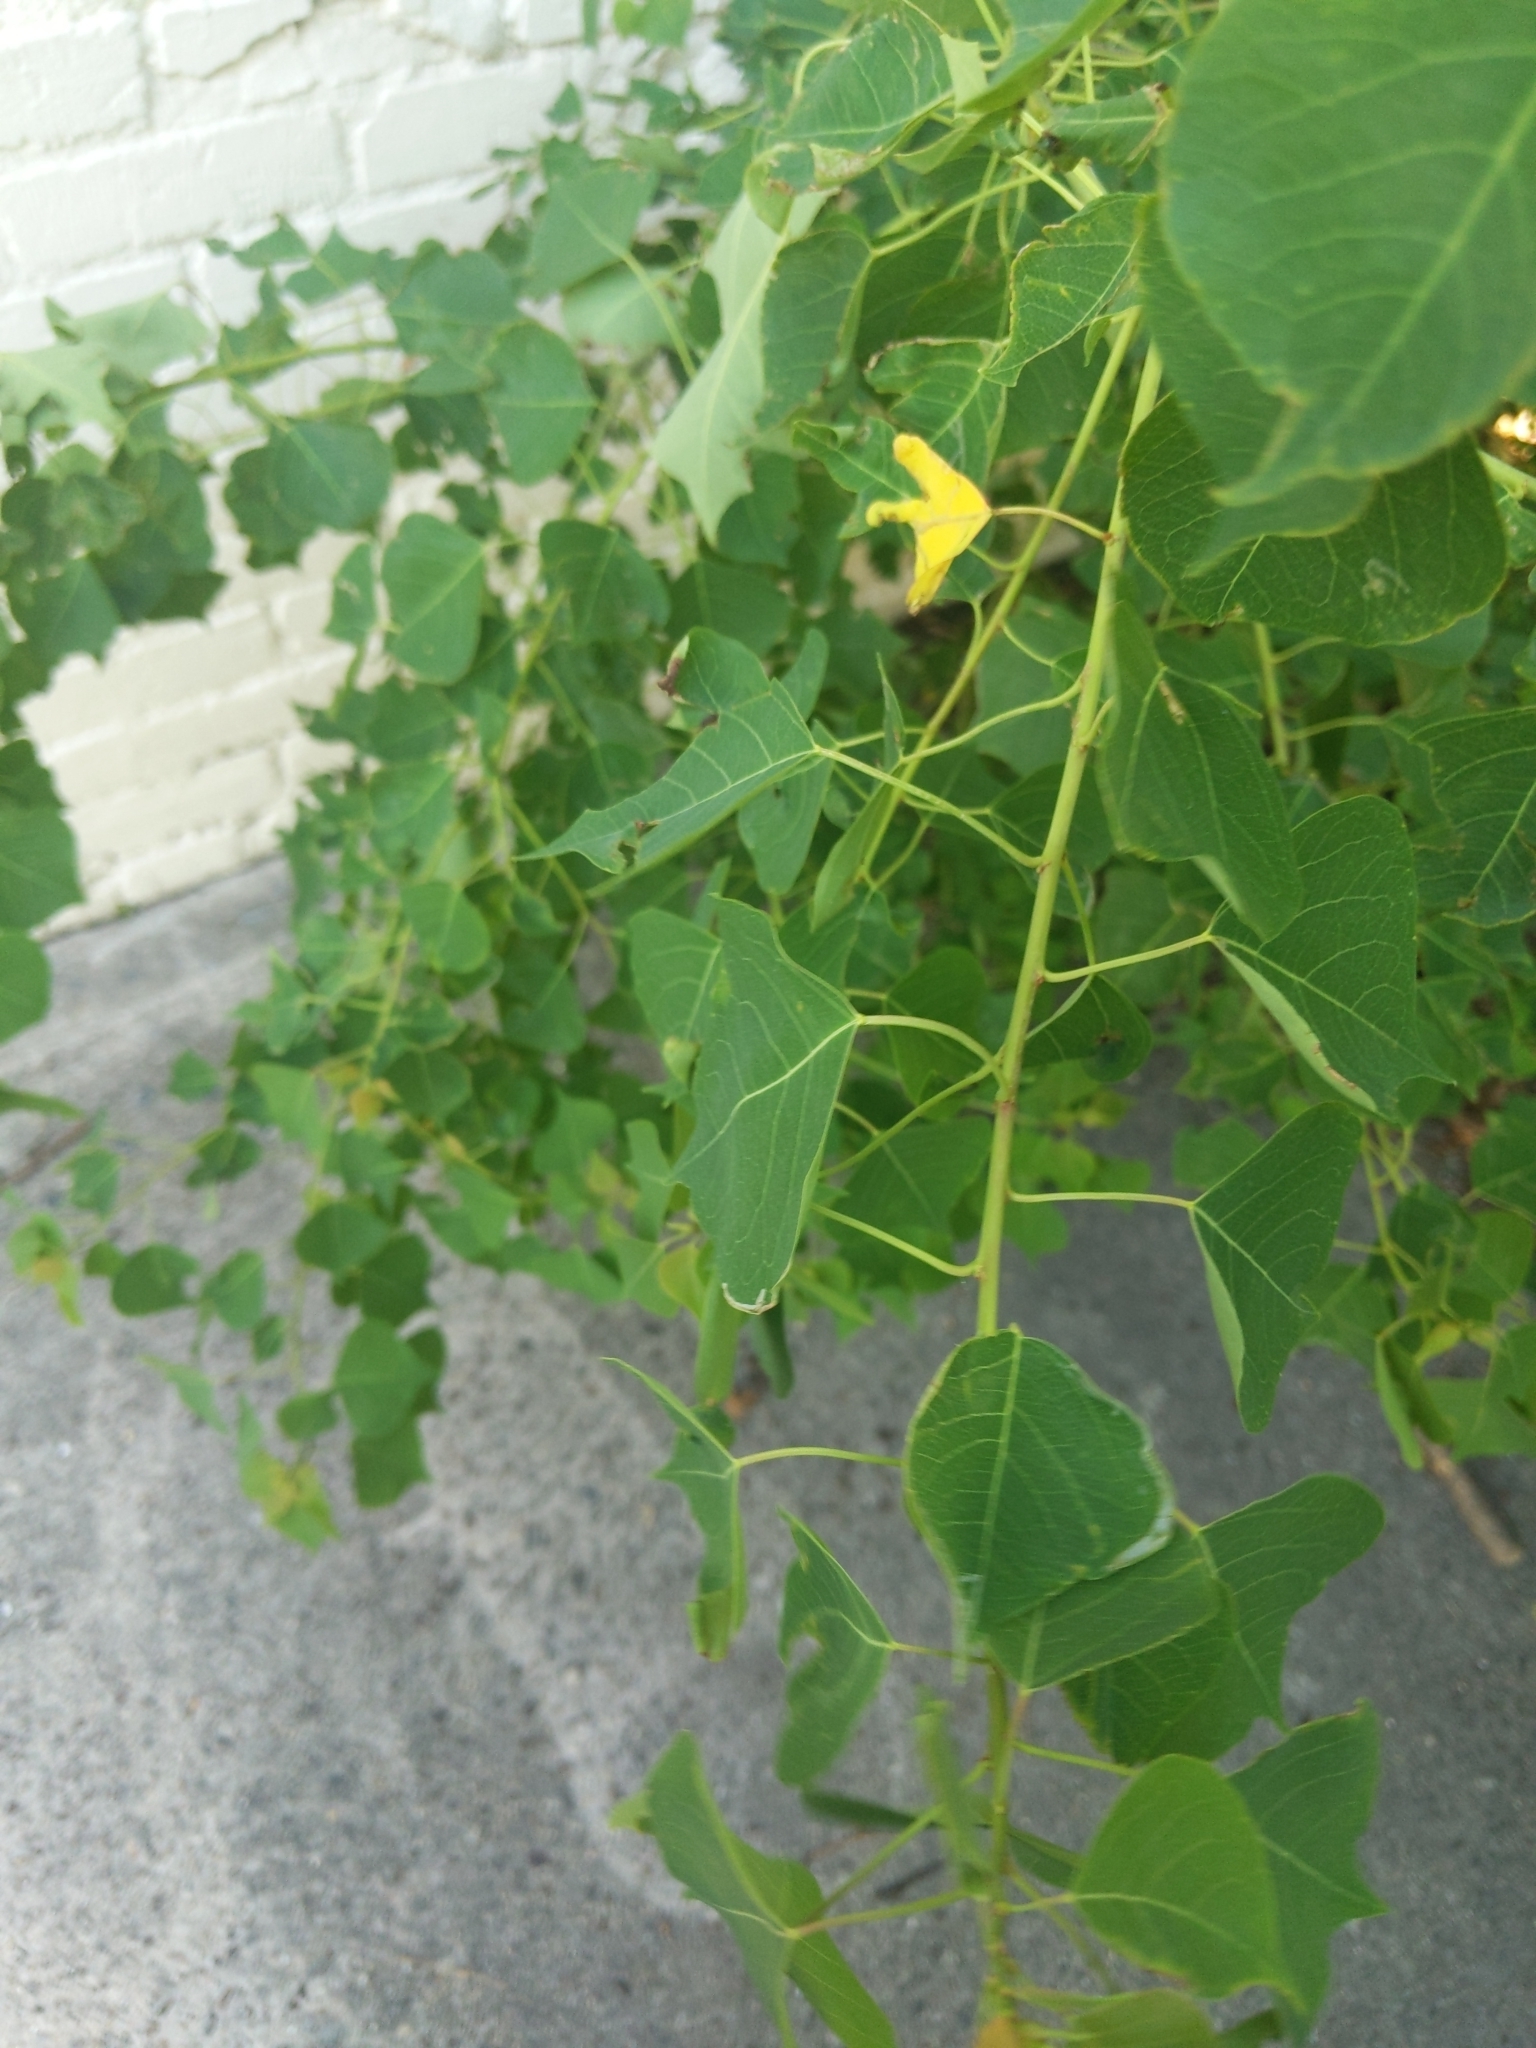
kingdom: Plantae
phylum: Tracheophyta
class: Magnoliopsida
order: Malpighiales
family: Euphorbiaceae
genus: Triadica
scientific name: Triadica sebifera
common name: Chinese tallow
